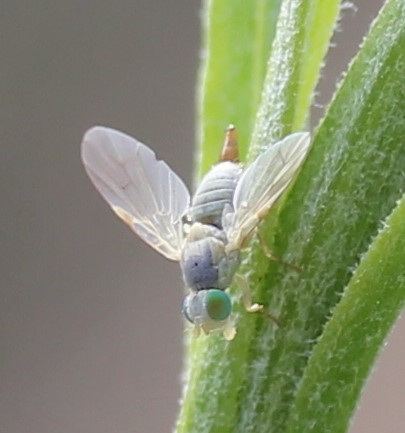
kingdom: Animalia
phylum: Arthropoda
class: Insecta
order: Diptera
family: Tephritidae
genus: Neaspilota
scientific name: Neaspilota
